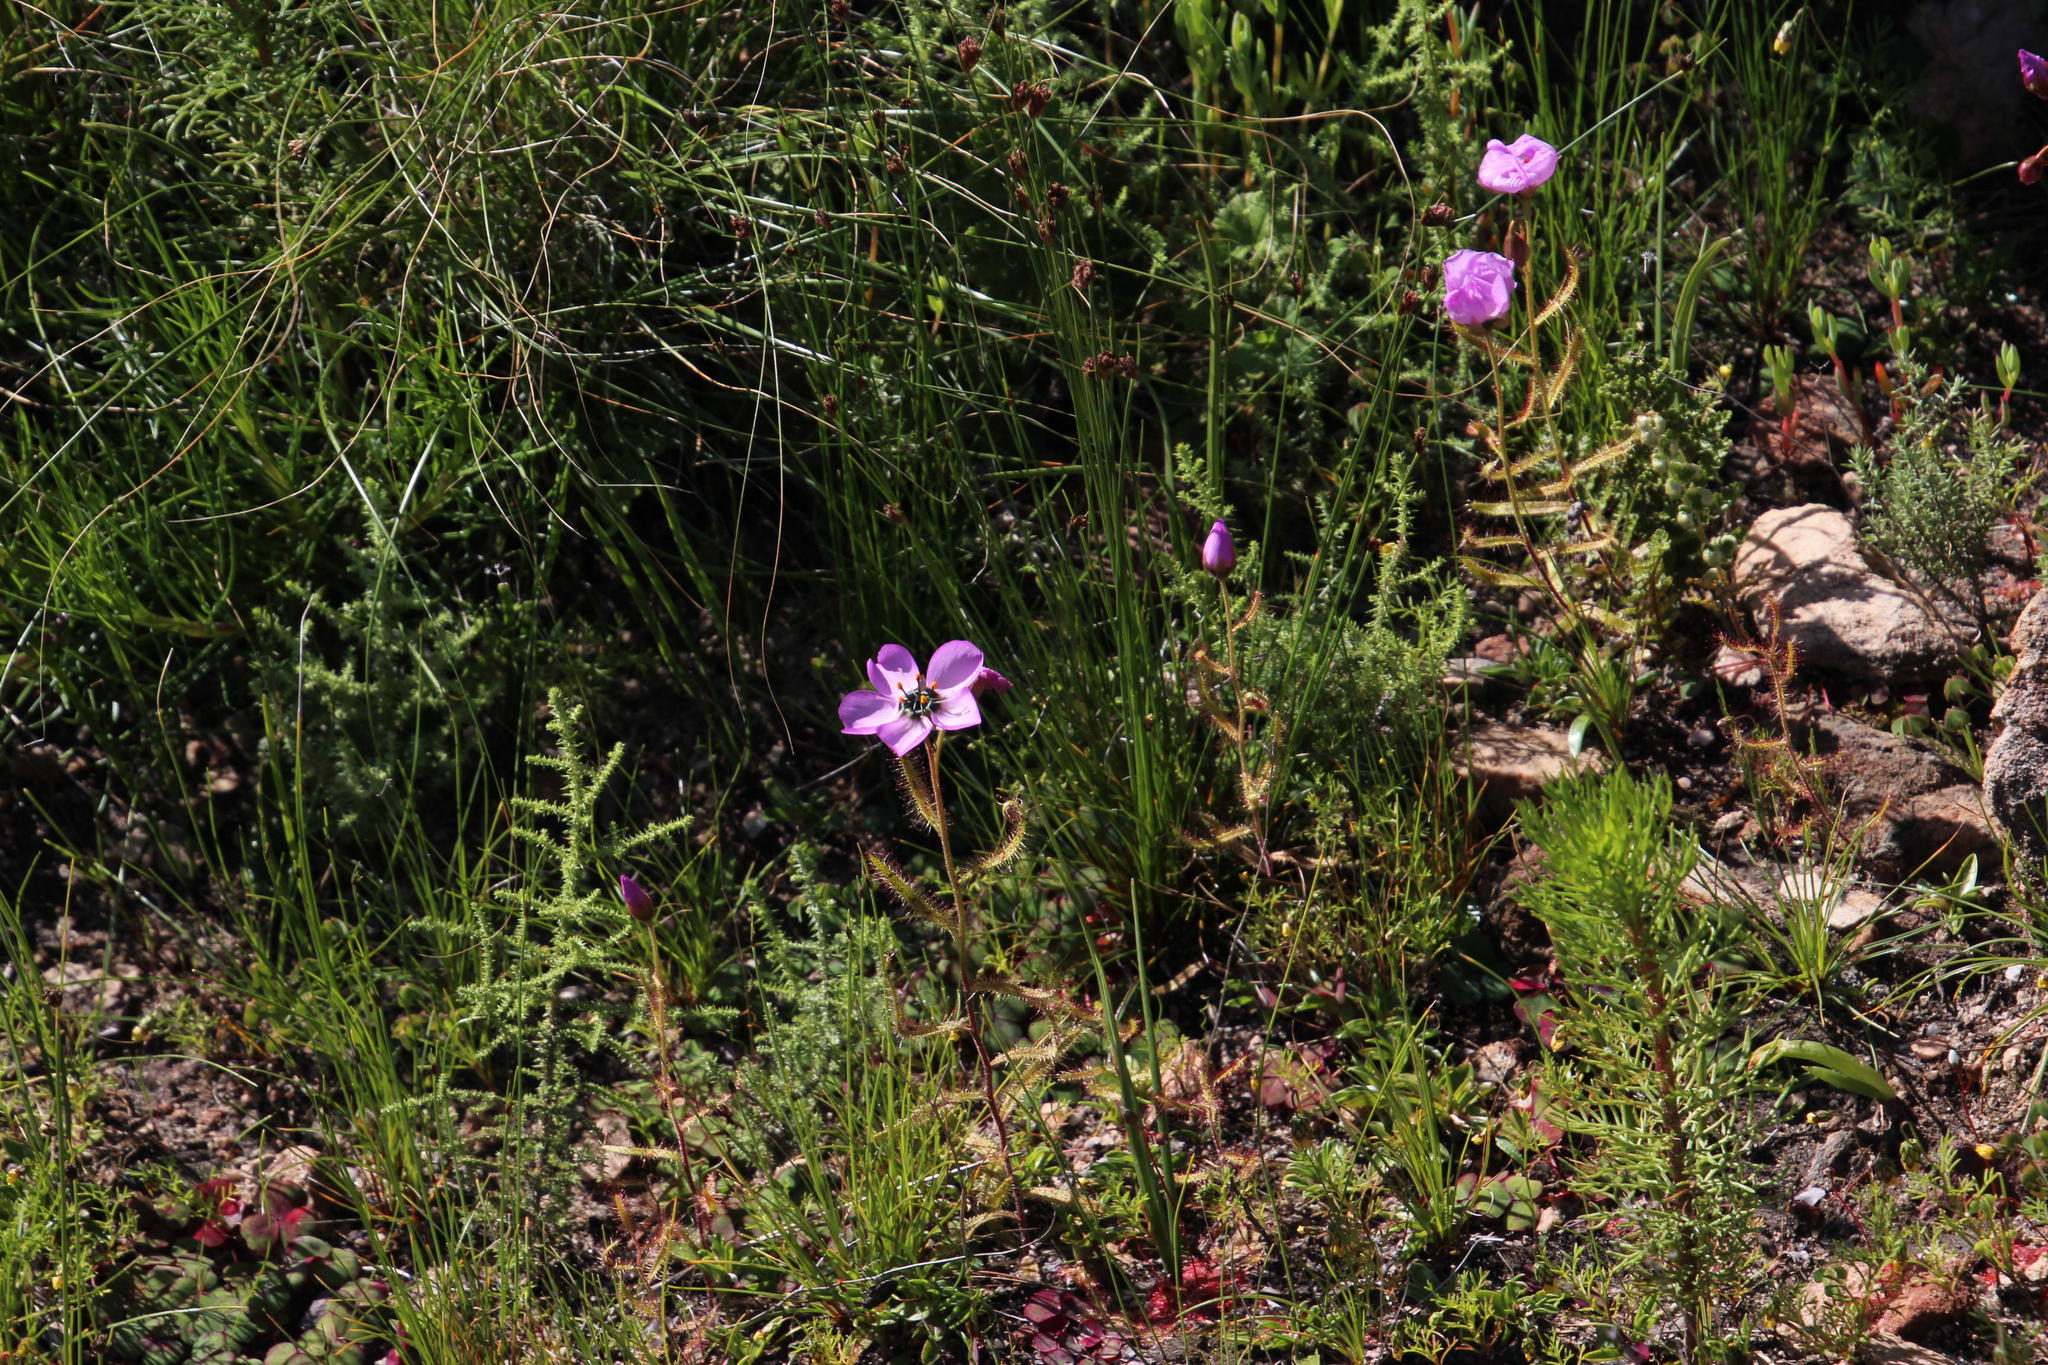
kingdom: Plantae
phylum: Tracheophyta
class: Magnoliopsida
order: Caryophyllales
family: Droseraceae
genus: Drosera
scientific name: Drosera cistiflora
